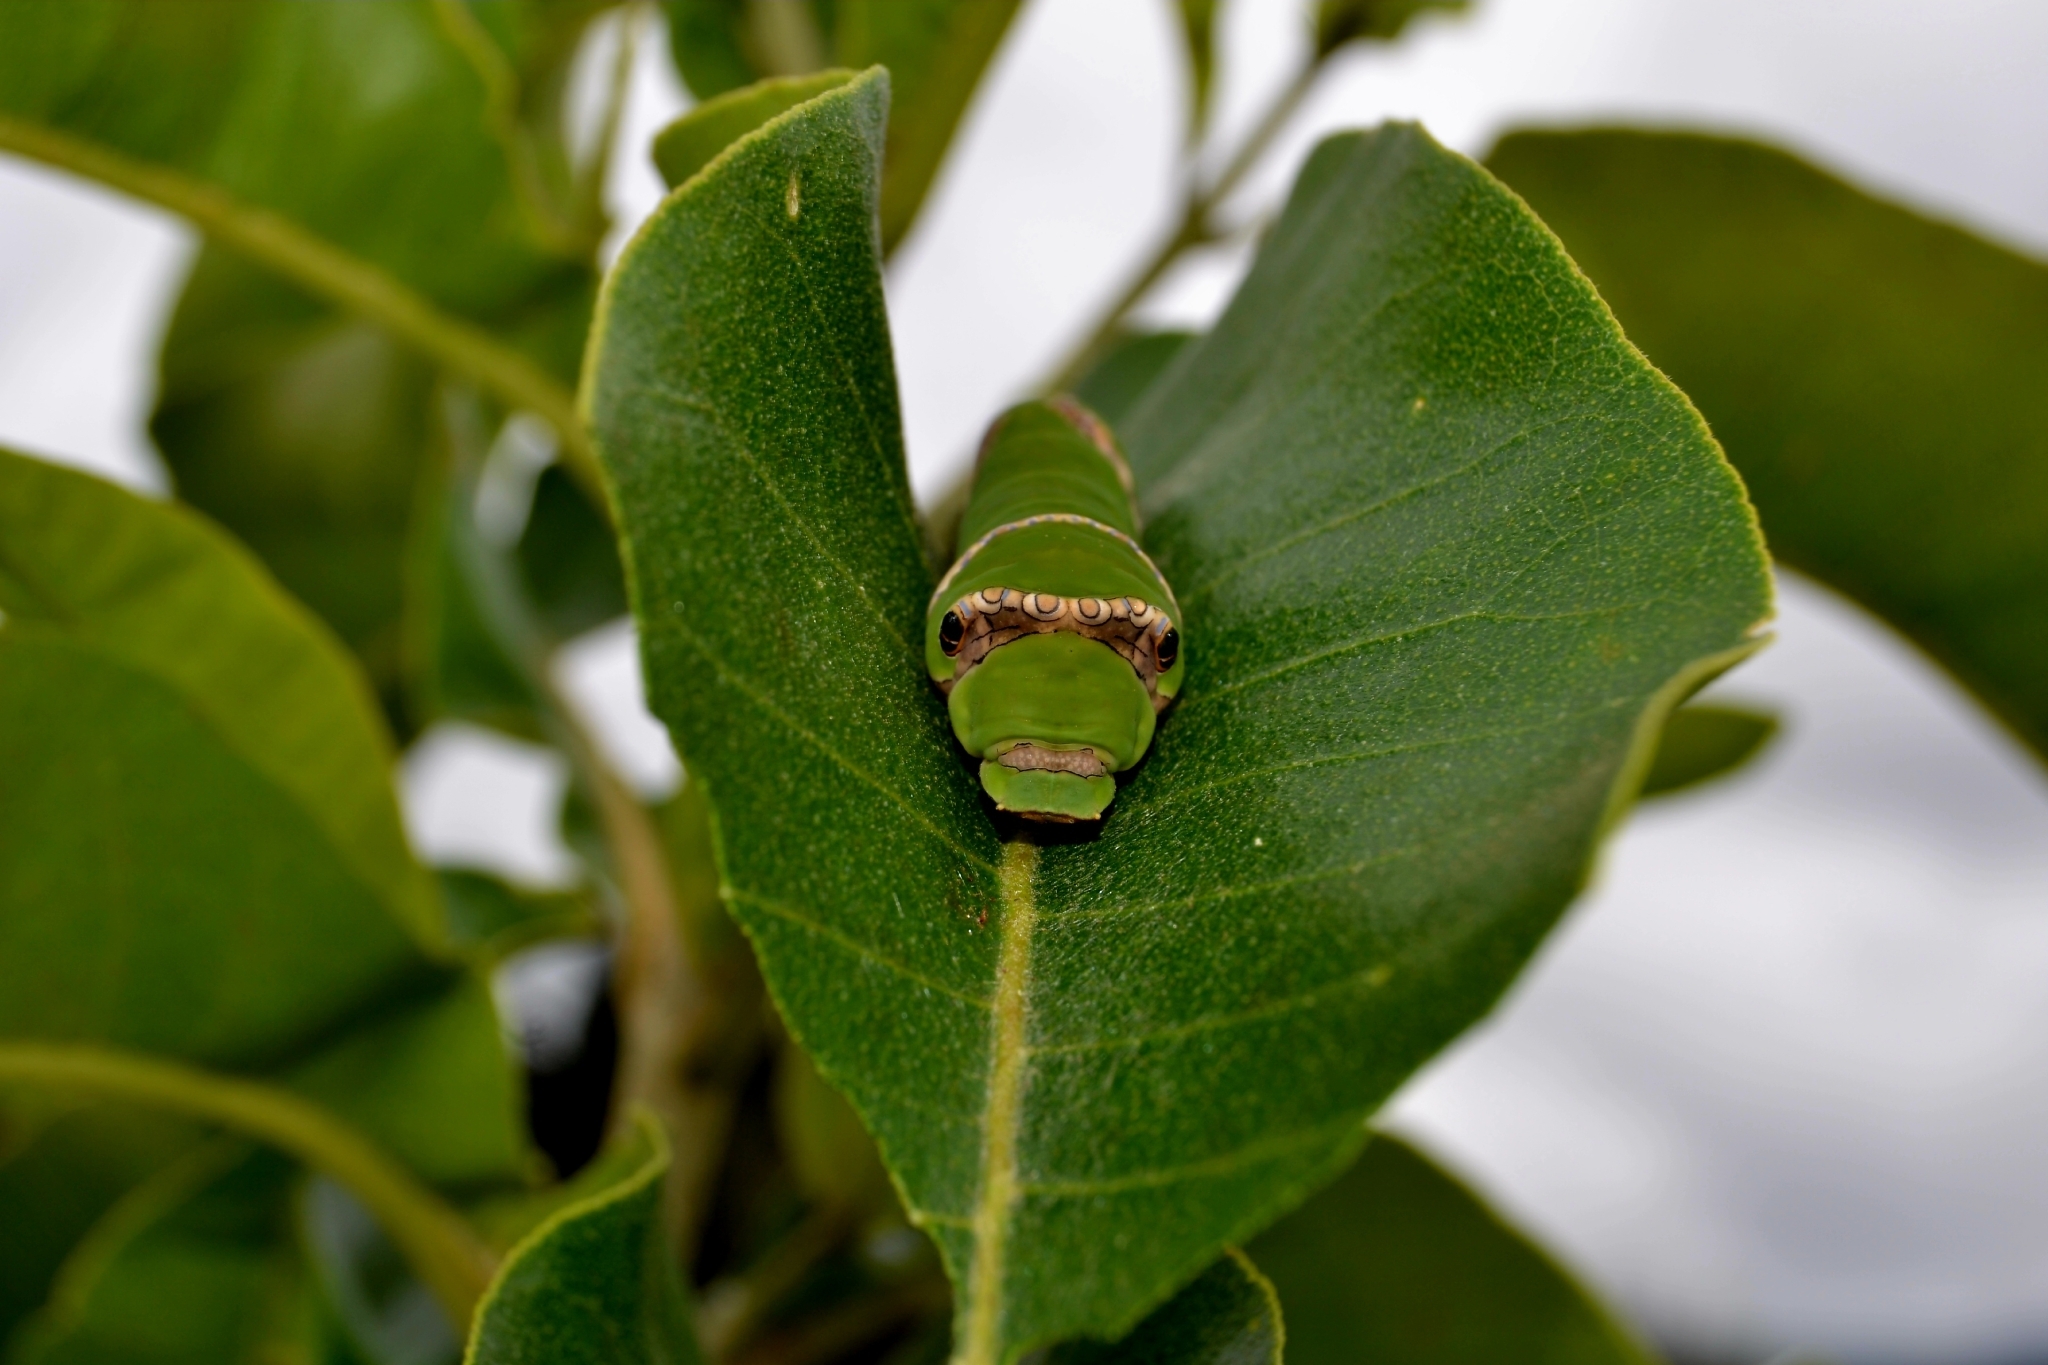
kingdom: Animalia
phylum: Arthropoda
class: Insecta
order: Lepidoptera
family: Papilionidae
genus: Papilio
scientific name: Papilio demodocus
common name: Christmas butterfly
